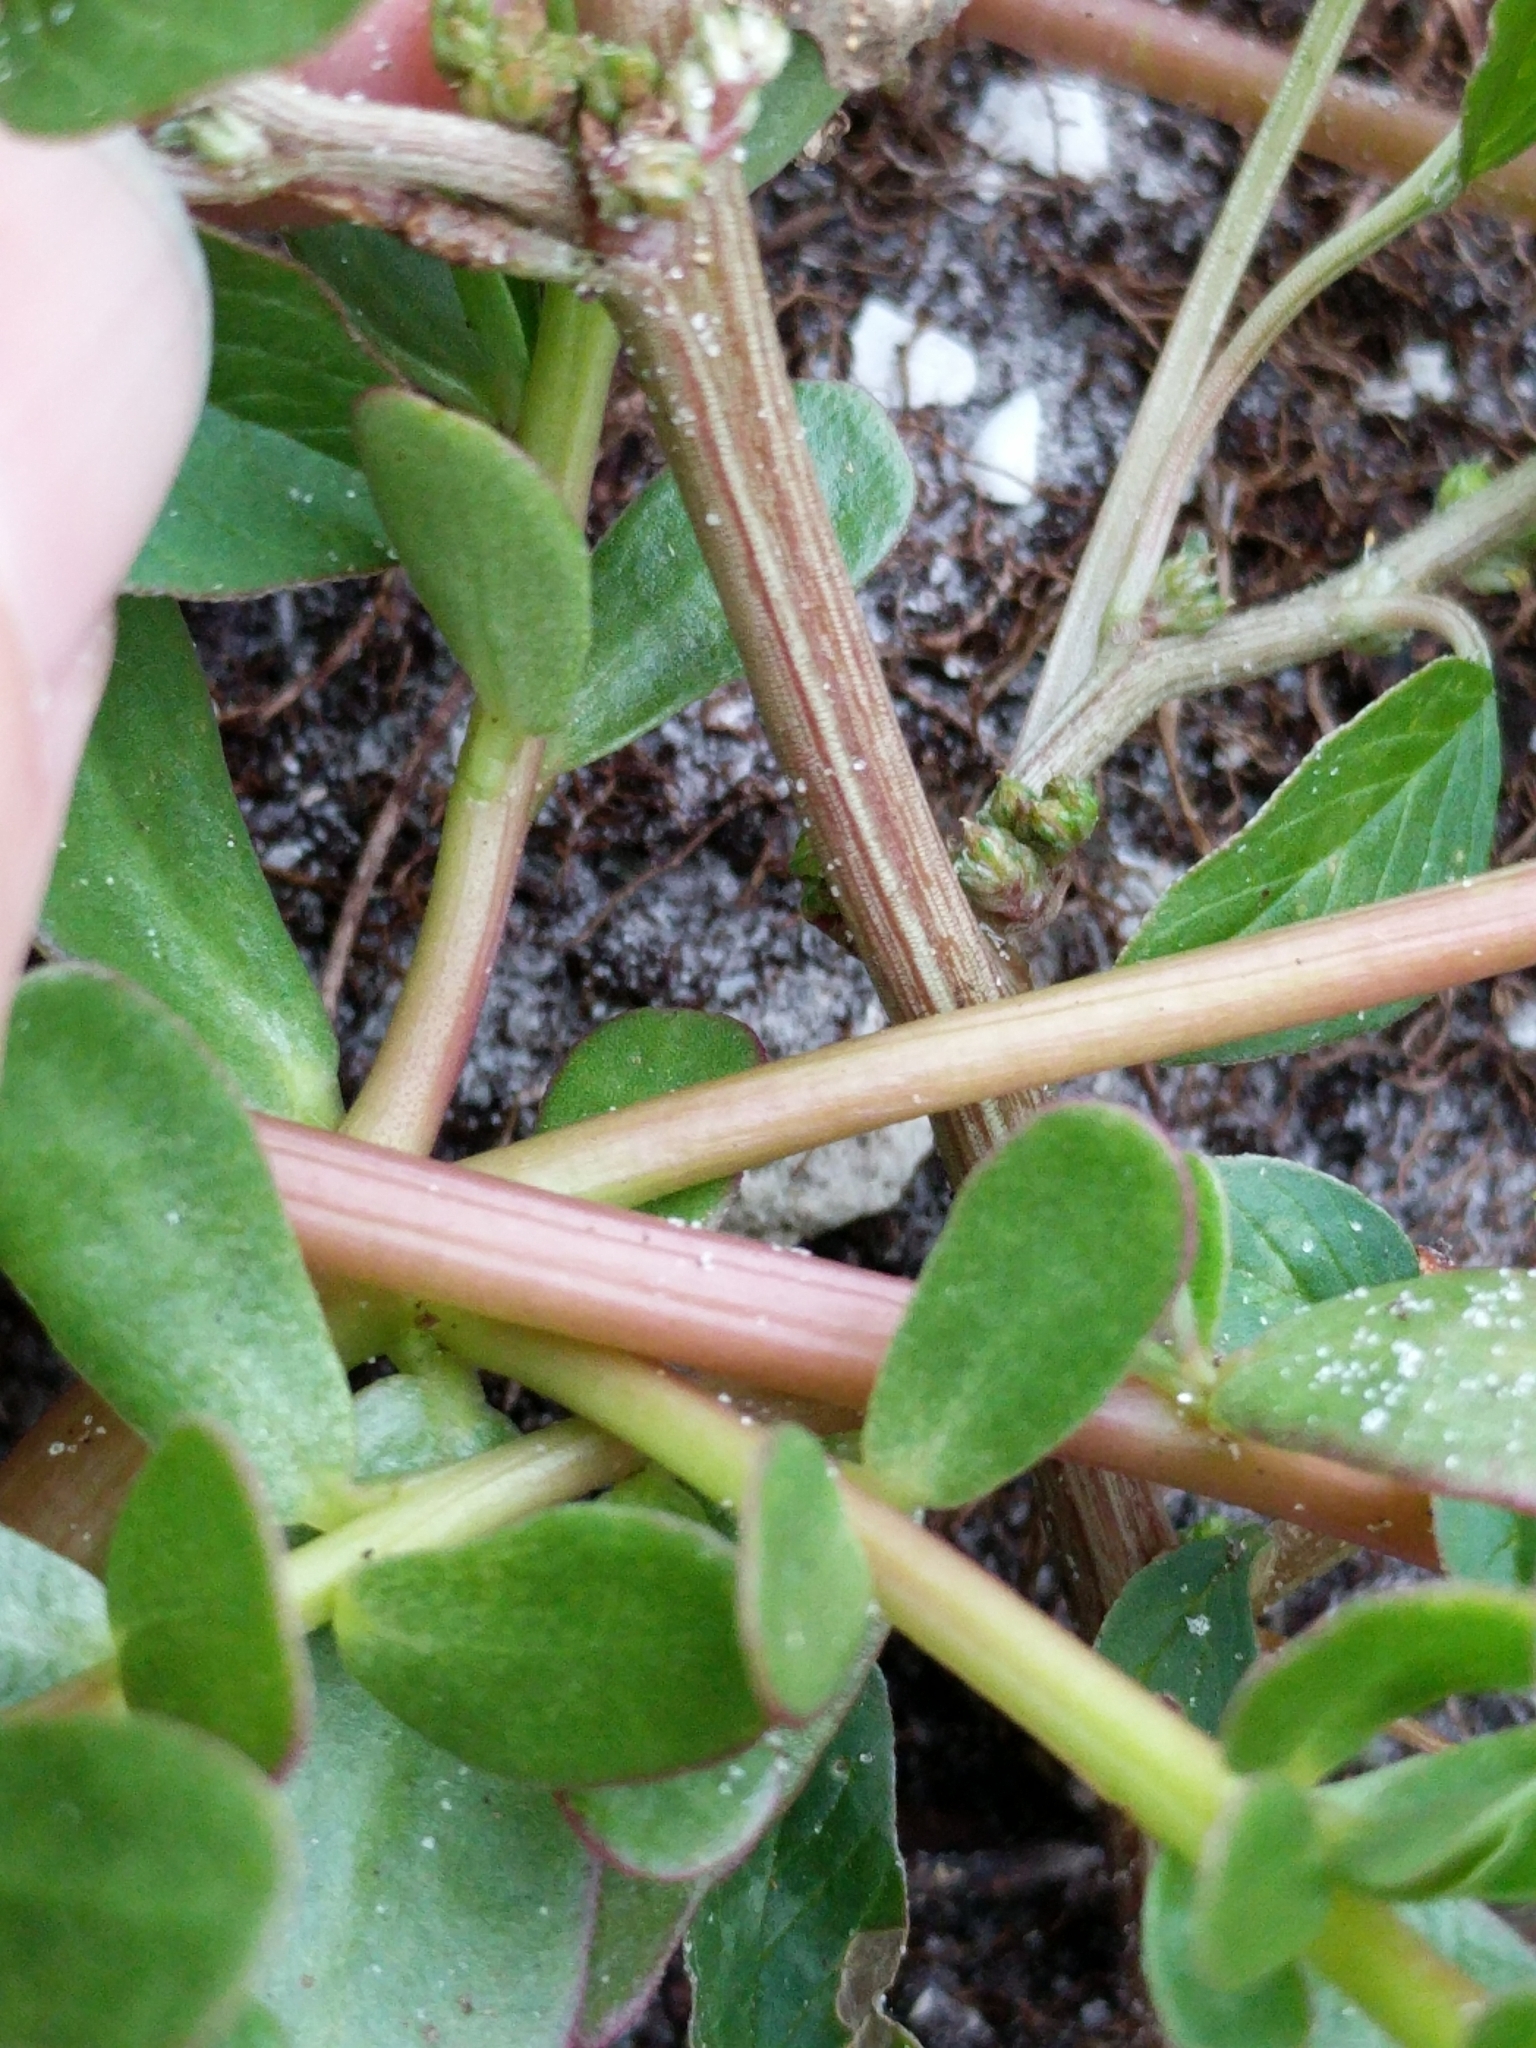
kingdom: Plantae
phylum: Tracheophyta
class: Magnoliopsida
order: Caryophyllales
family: Amaranthaceae
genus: Amaranthus
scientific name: Amaranthus viridis
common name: Slender amaranth
